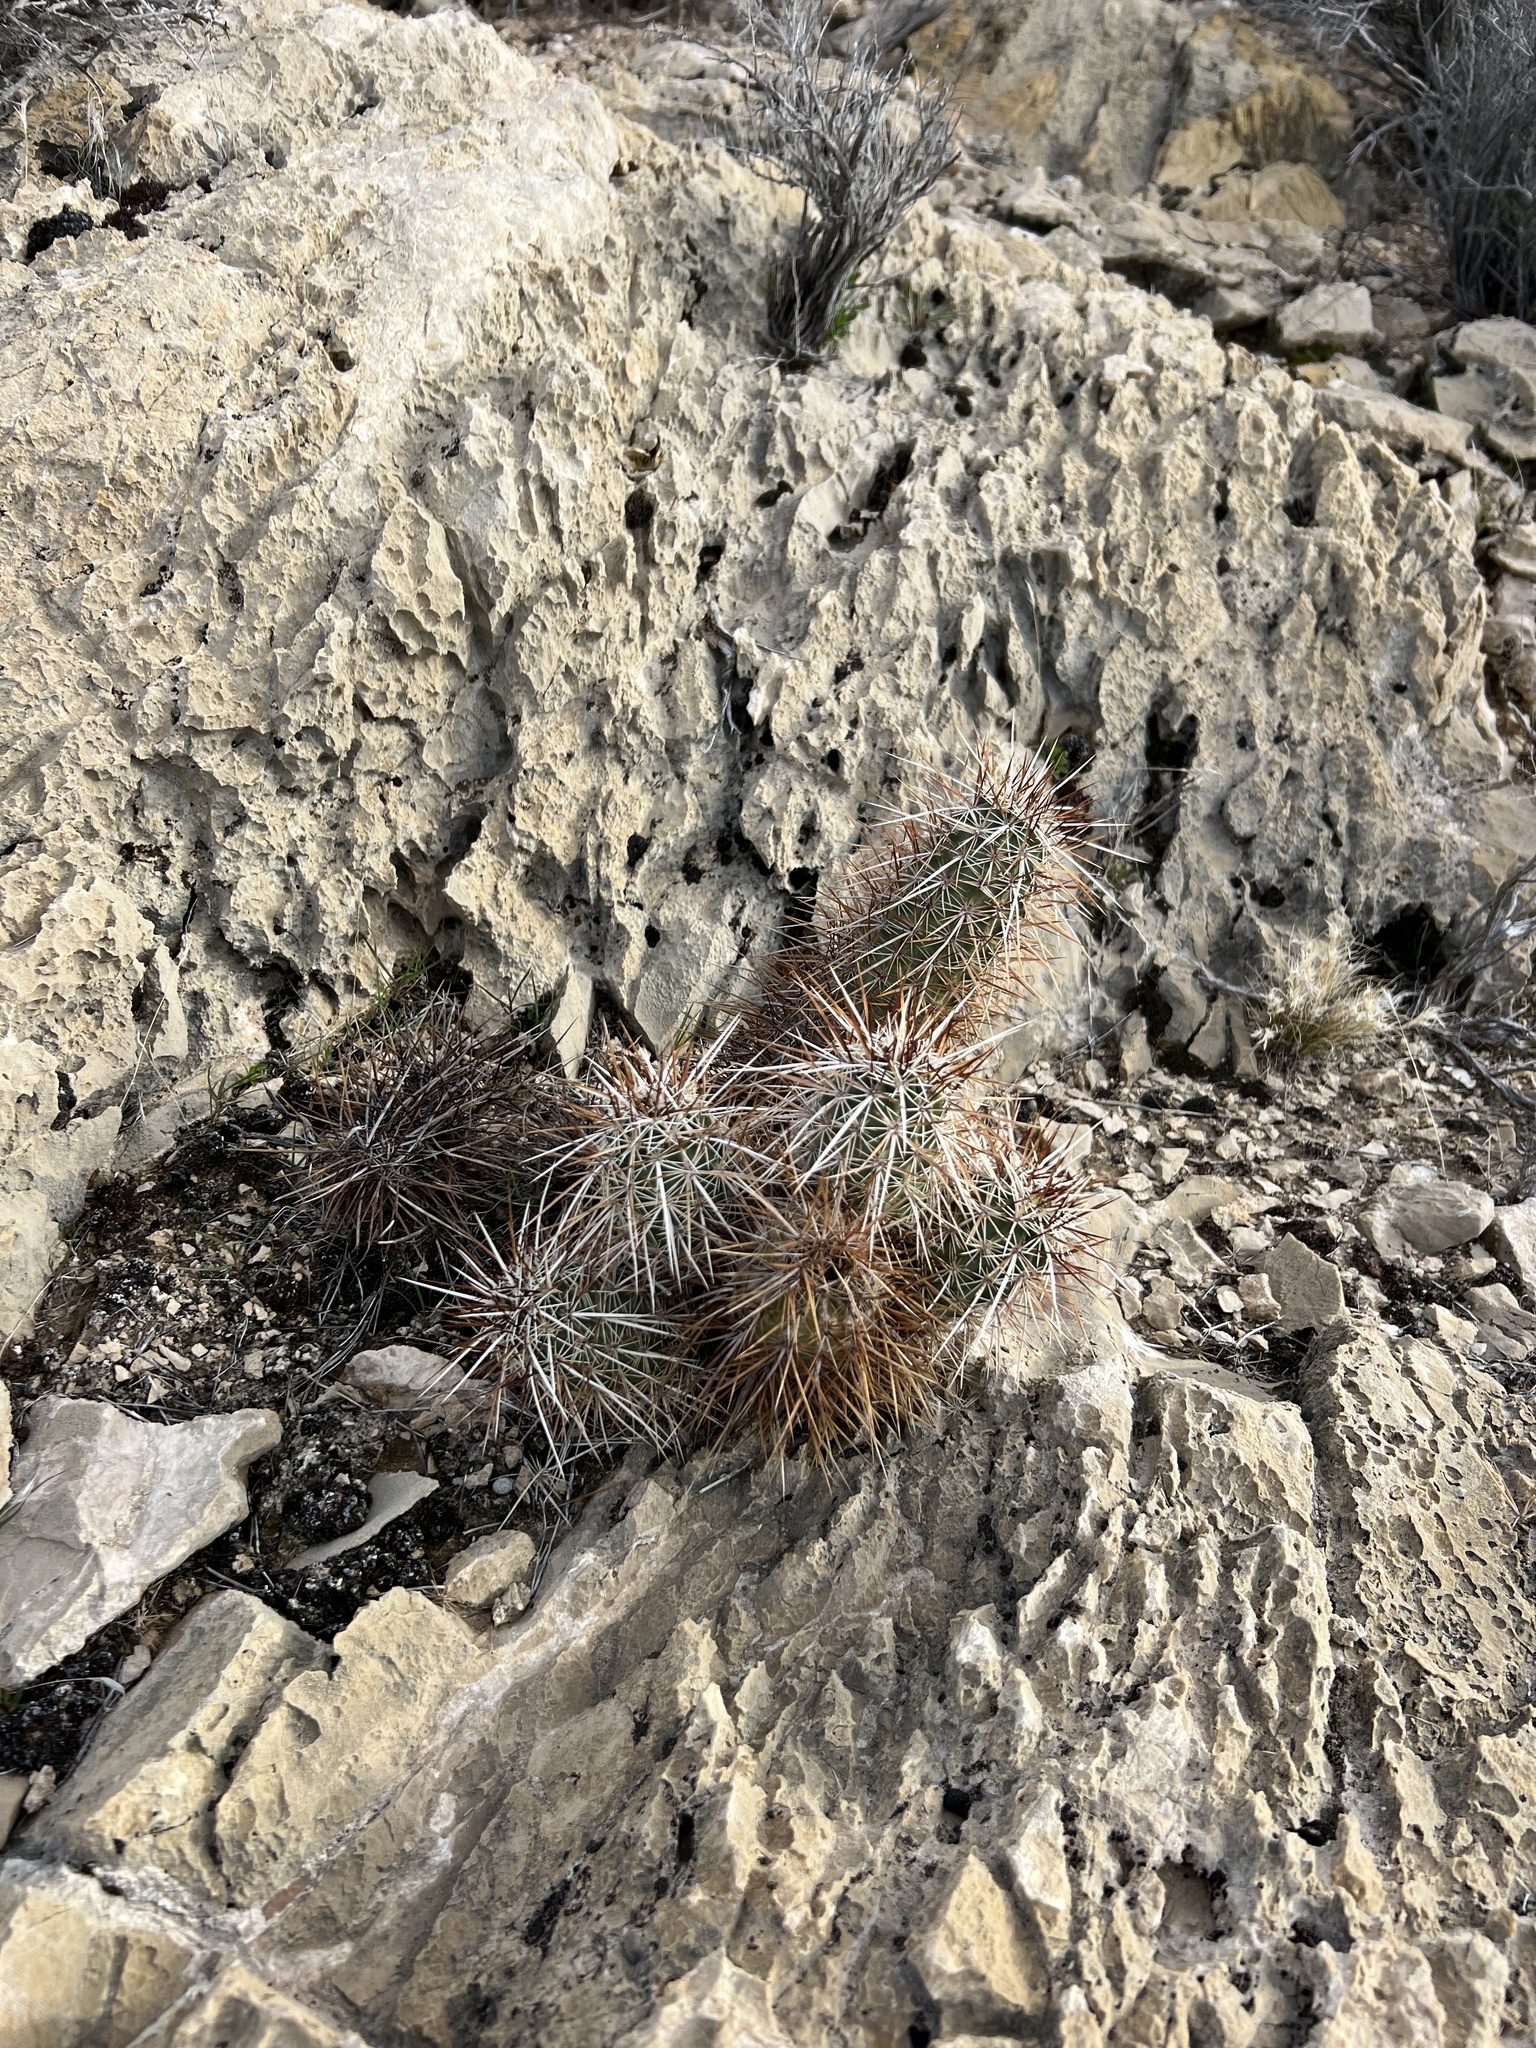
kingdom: Plantae
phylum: Tracheophyta
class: Magnoliopsida
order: Caryophyllales
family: Cactaceae
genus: Echinocereus
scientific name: Echinocereus engelmannii
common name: Engelmann's hedgehog cactus
